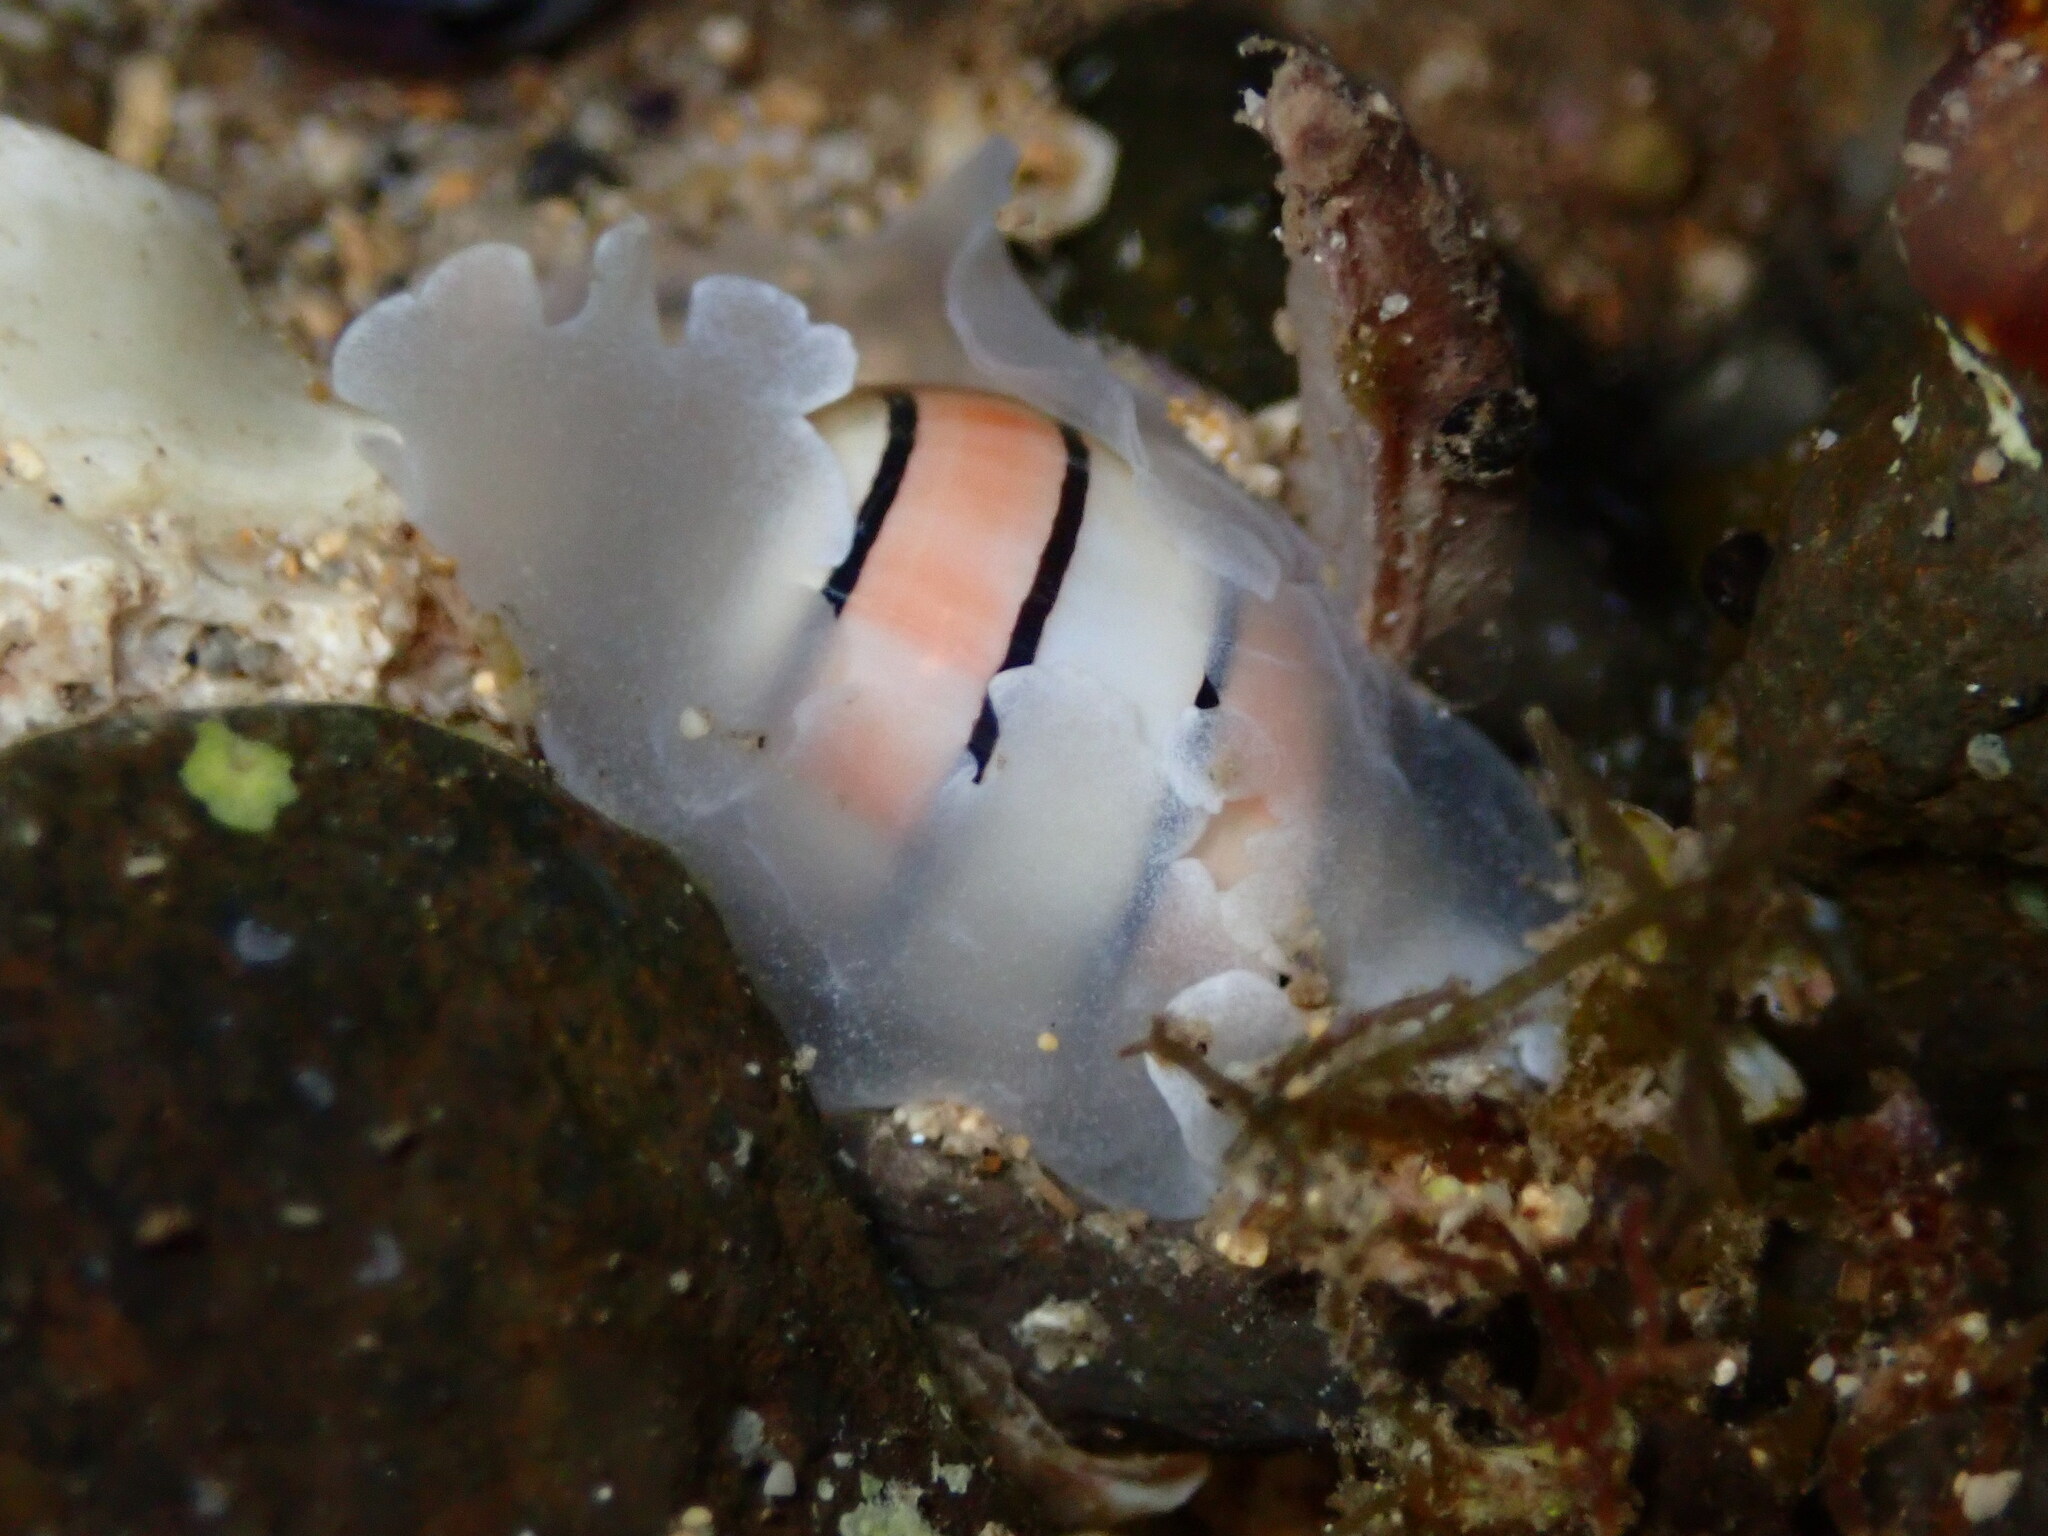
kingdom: Animalia
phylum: Mollusca
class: Gastropoda
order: Cephalaspidea
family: Aplustridae
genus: Aplustrum
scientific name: Aplustrum amplustre
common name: Royal paperbubble
